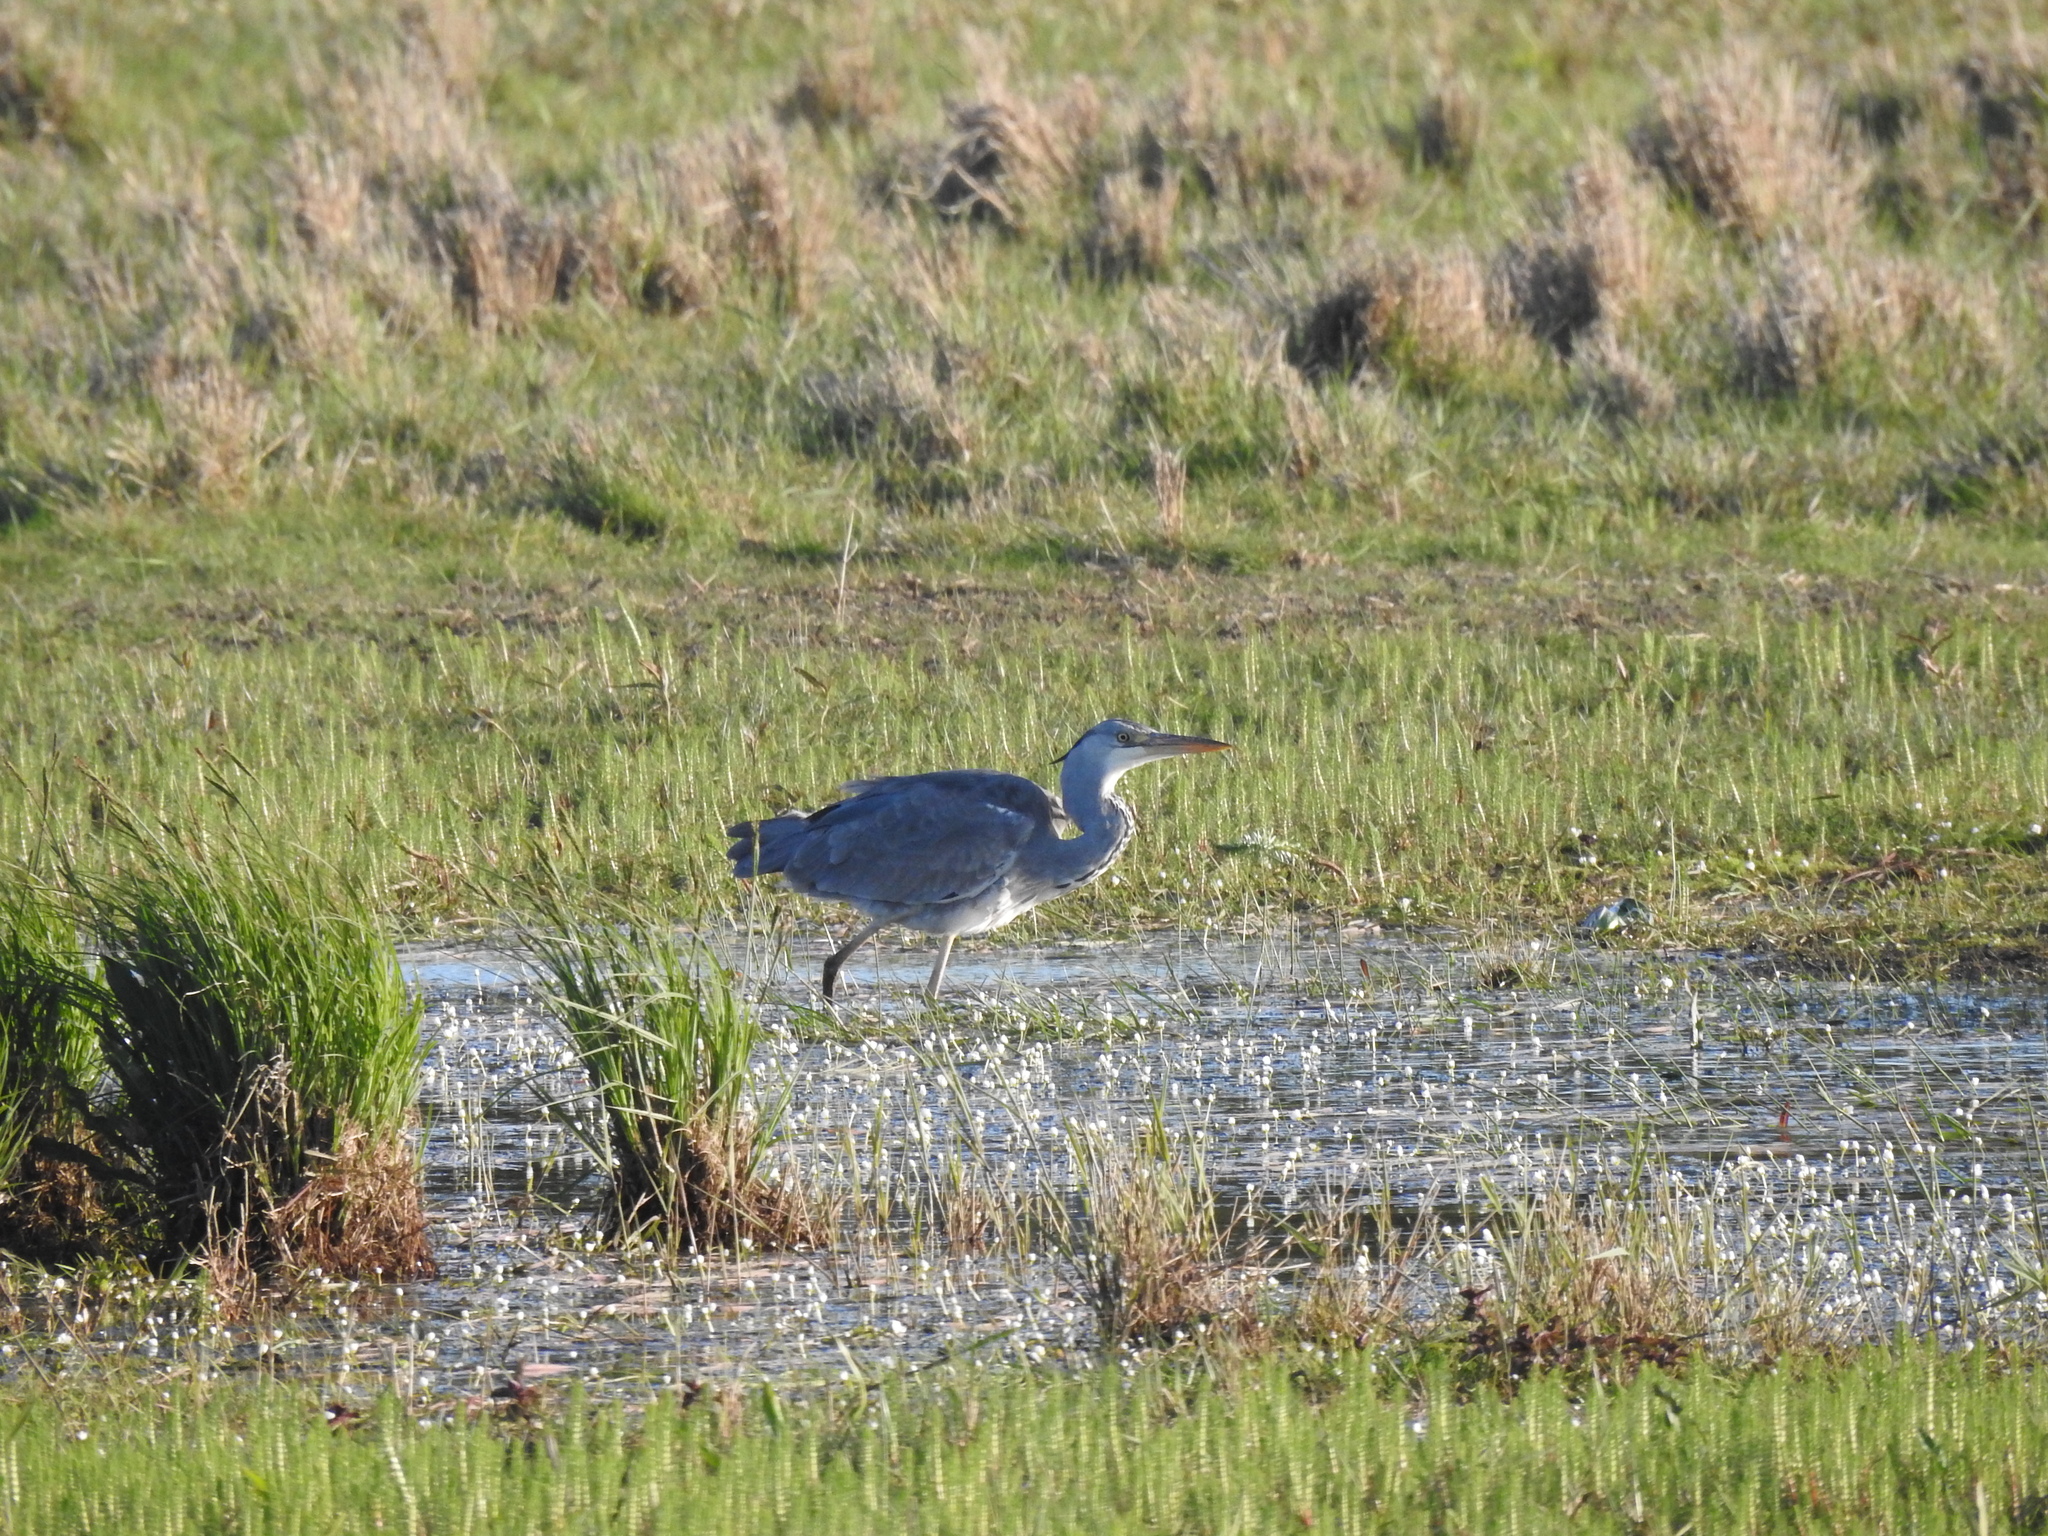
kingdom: Animalia
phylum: Chordata
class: Aves
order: Pelecaniformes
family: Ardeidae
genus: Ardea
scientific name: Ardea cinerea
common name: Grey heron
